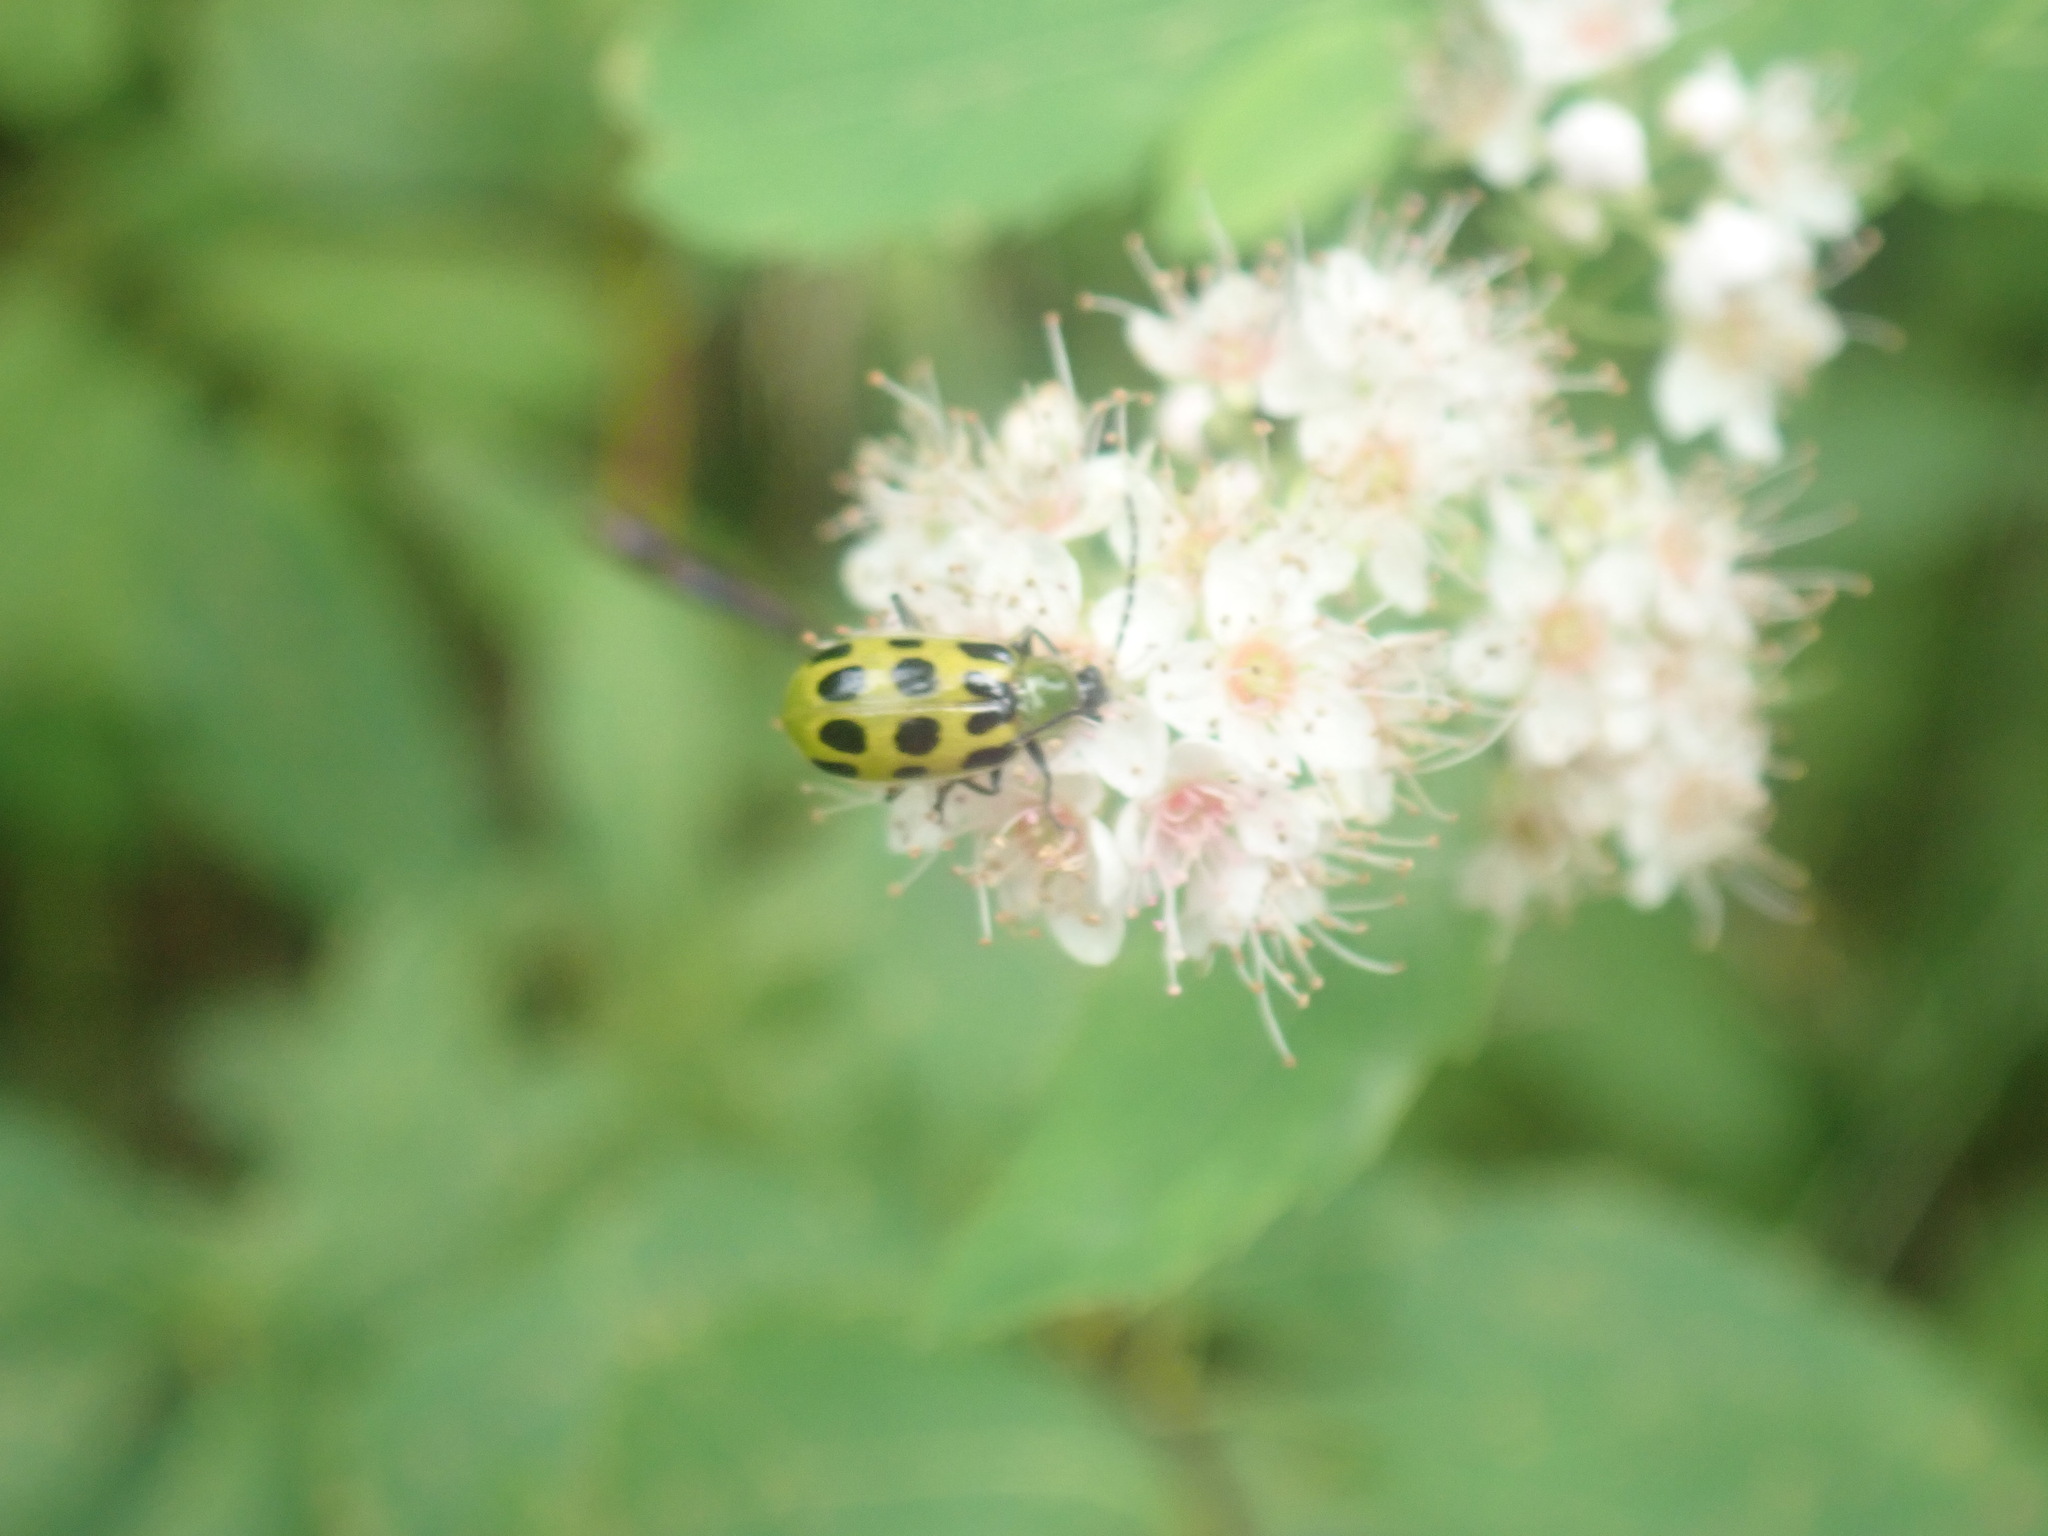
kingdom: Animalia
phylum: Arthropoda
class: Insecta
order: Coleoptera
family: Chrysomelidae
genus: Diabrotica
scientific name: Diabrotica undecimpunctata
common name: Spotted cucumber beetle
